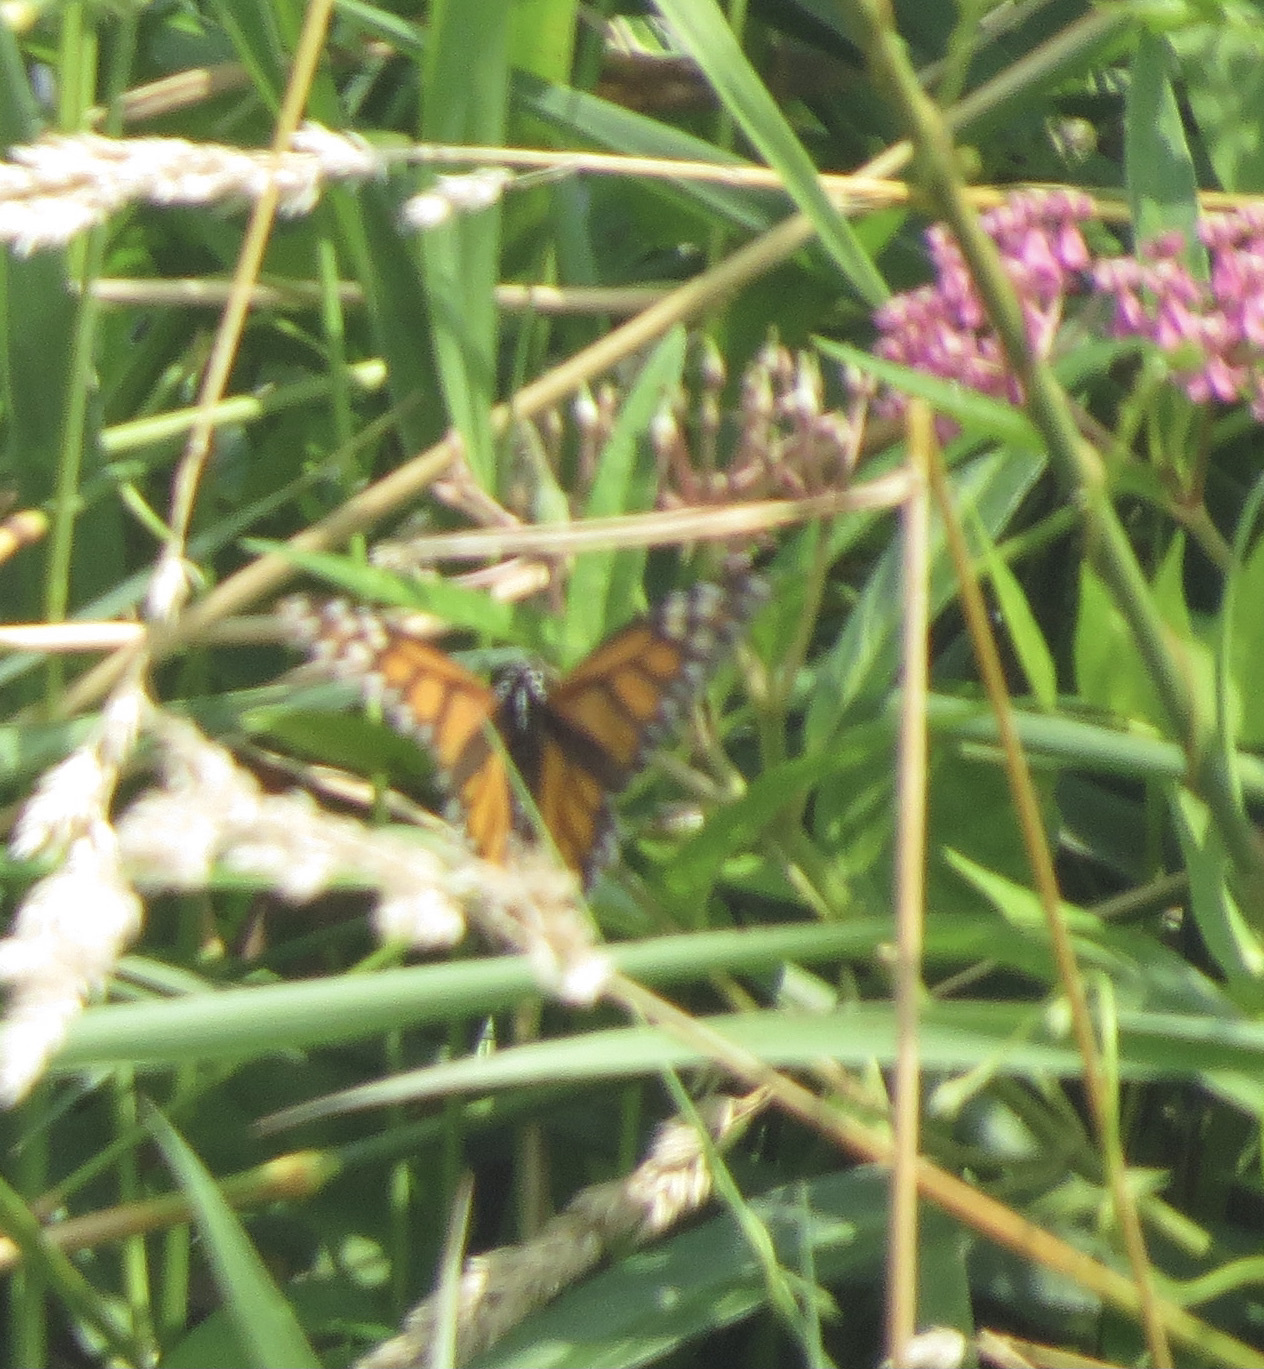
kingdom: Animalia
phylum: Arthropoda
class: Insecta
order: Lepidoptera
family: Nymphalidae
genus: Danaus
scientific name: Danaus plexippus
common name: Monarch
